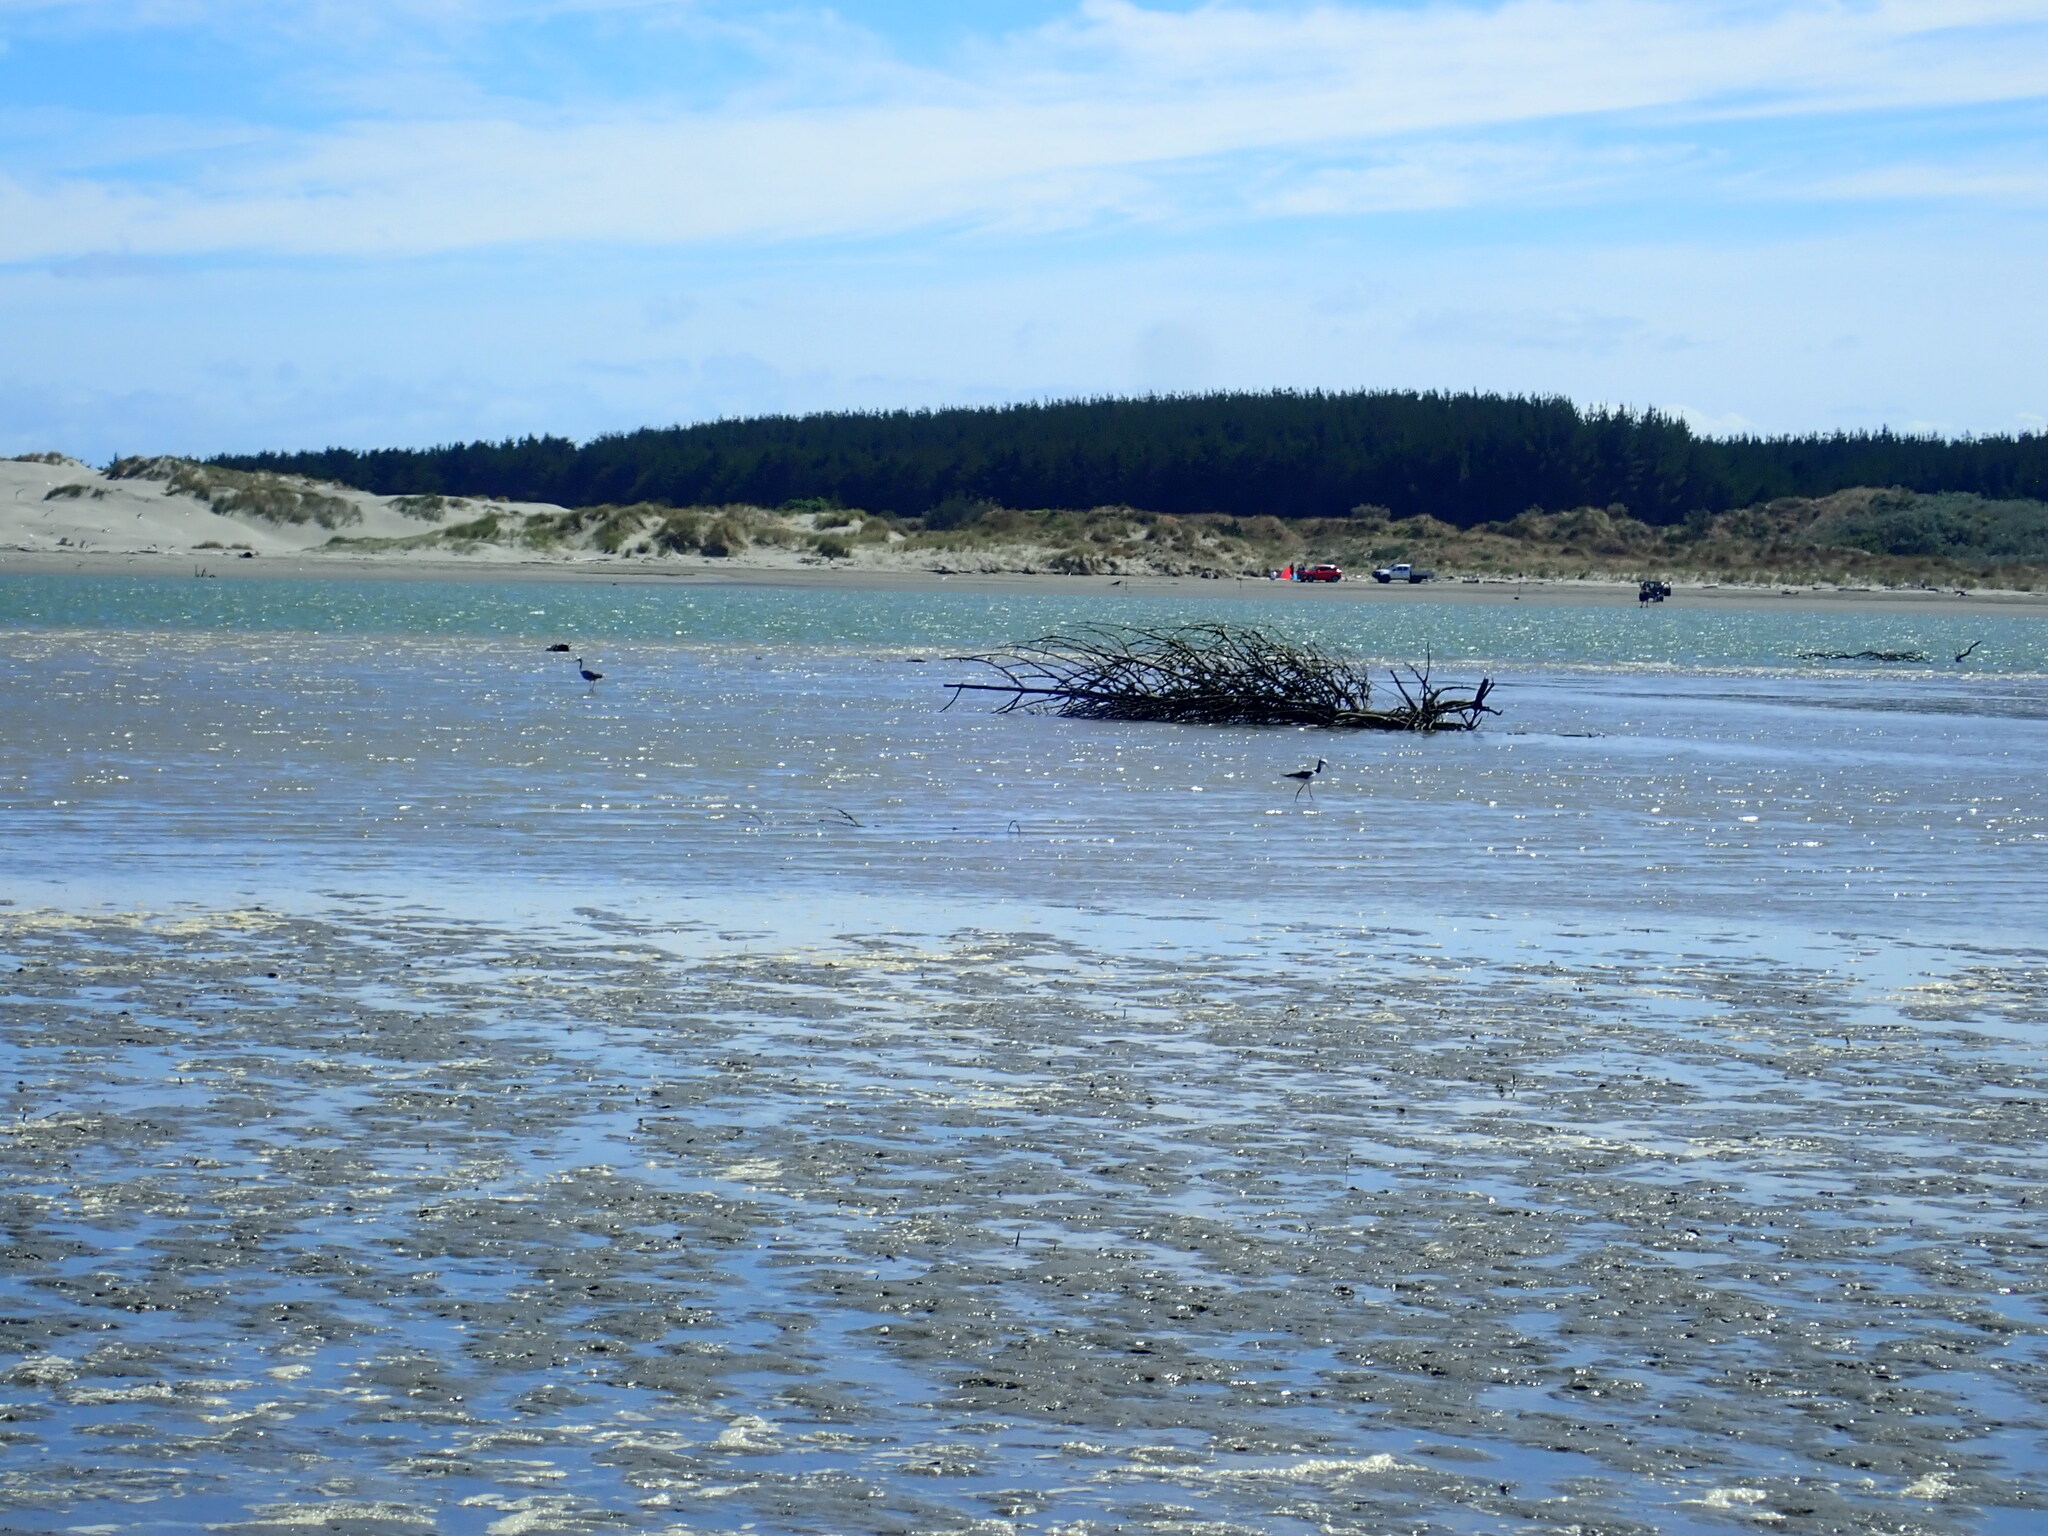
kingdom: Animalia
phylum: Chordata
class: Aves
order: Charadriiformes
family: Recurvirostridae
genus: Himantopus
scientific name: Himantopus leucocephalus
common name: White-headed stilt
